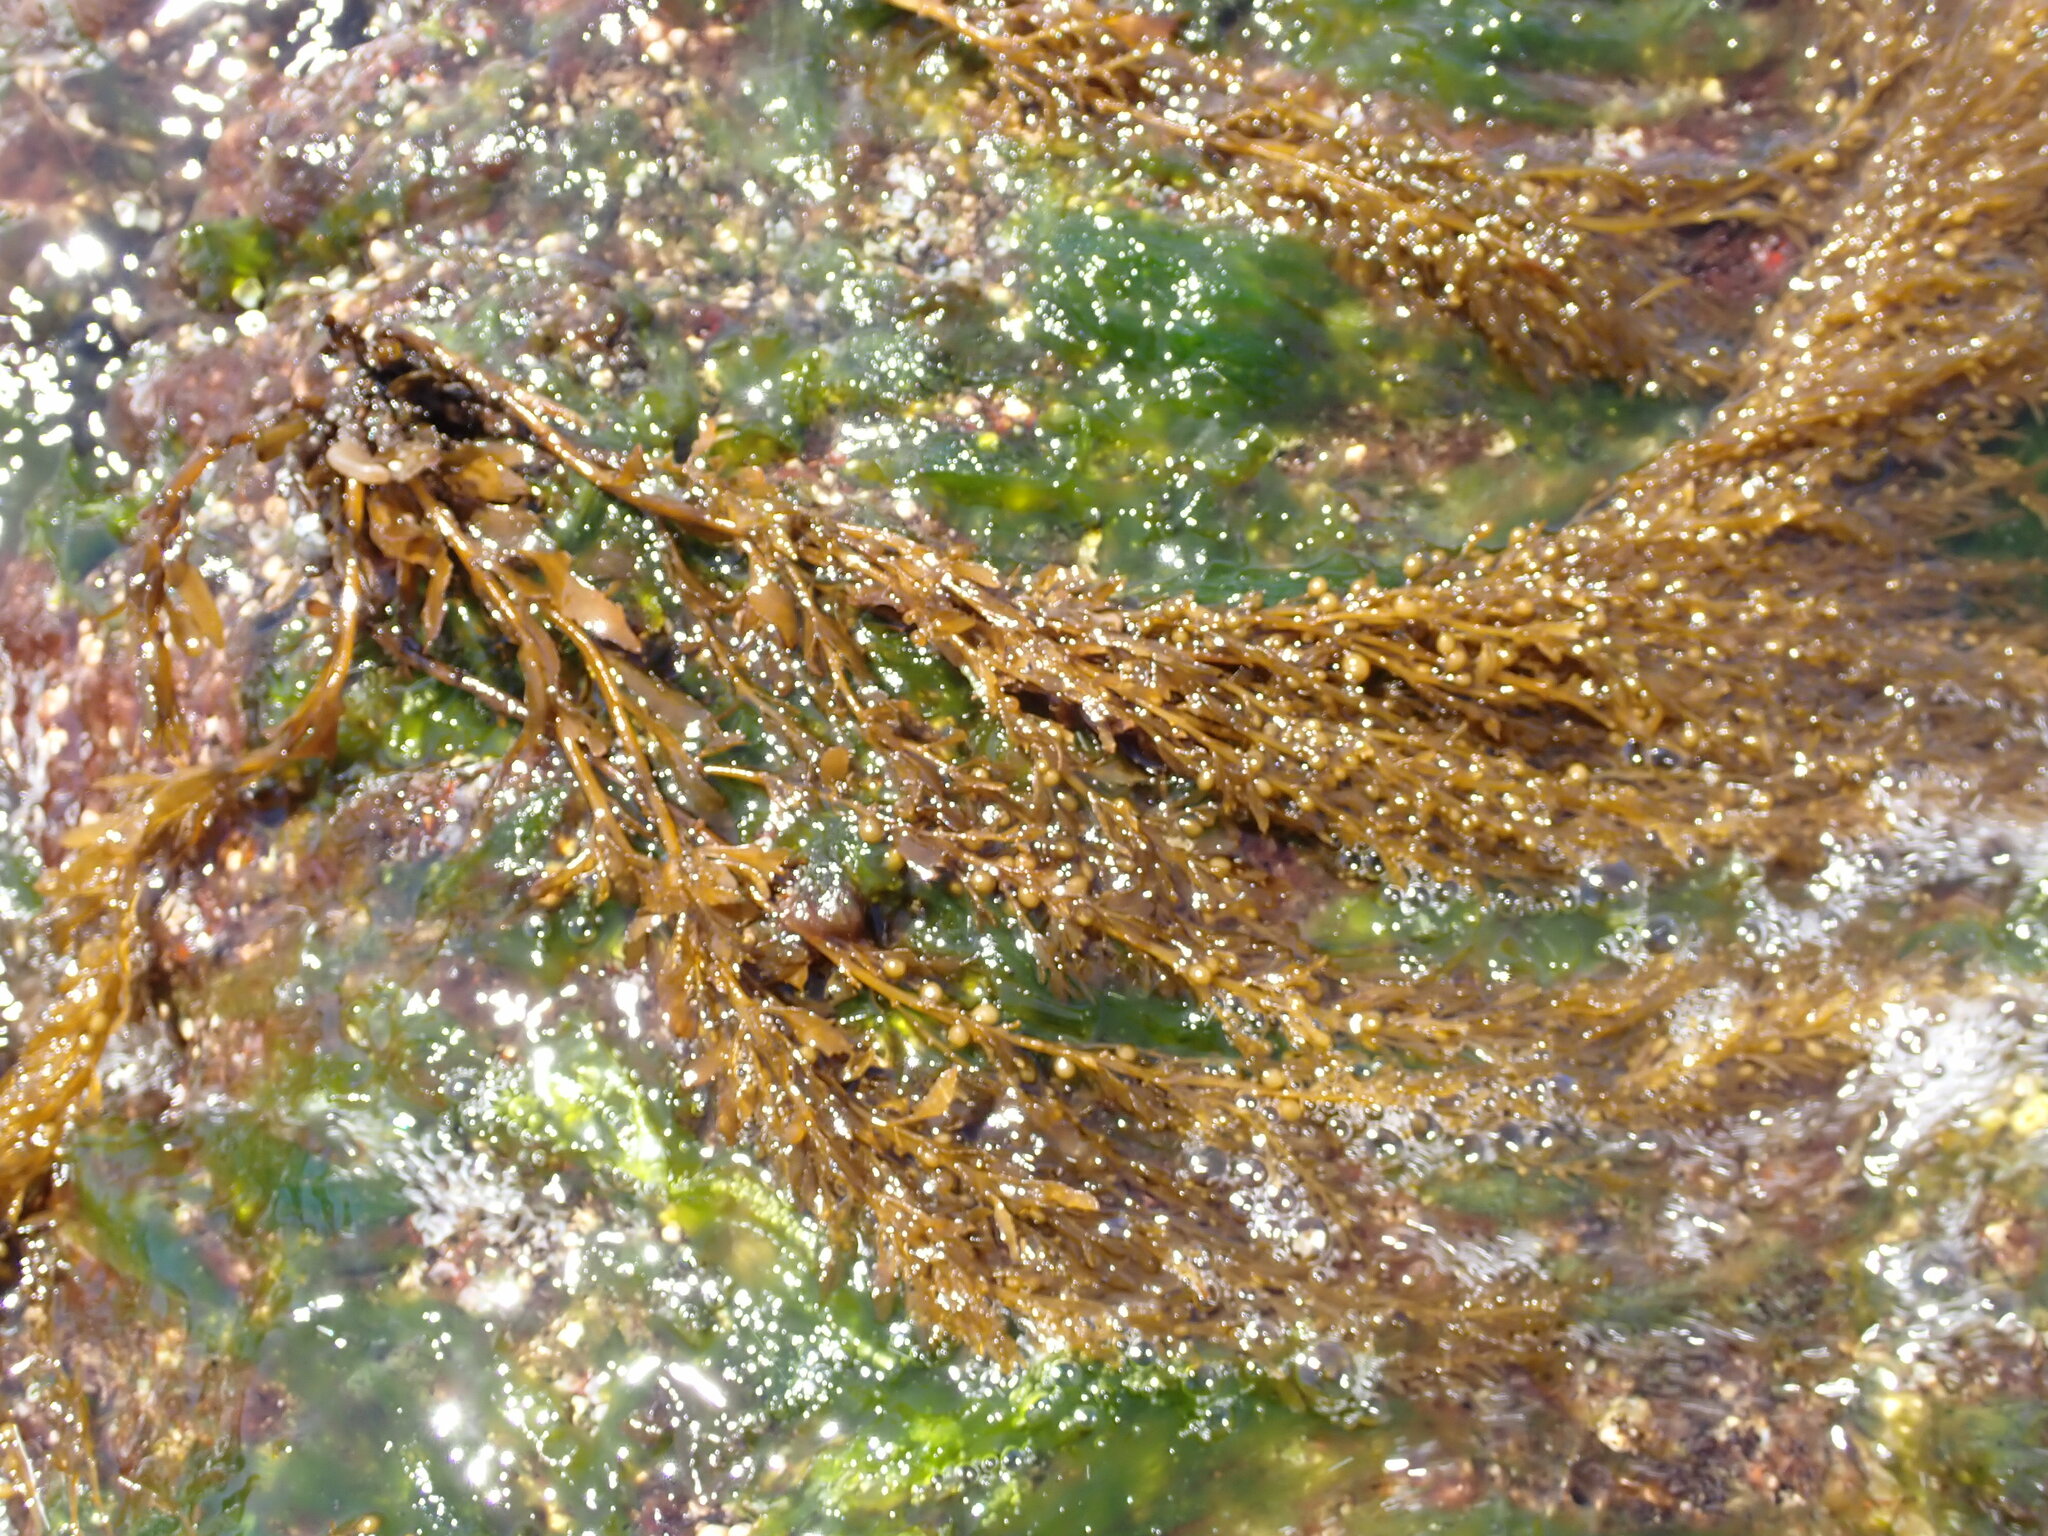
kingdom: Chromista
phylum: Ochrophyta
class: Phaeophyceae
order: Fucales
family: Sargassaceae
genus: Sargassum
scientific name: Sargassum muticum
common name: Japweed
